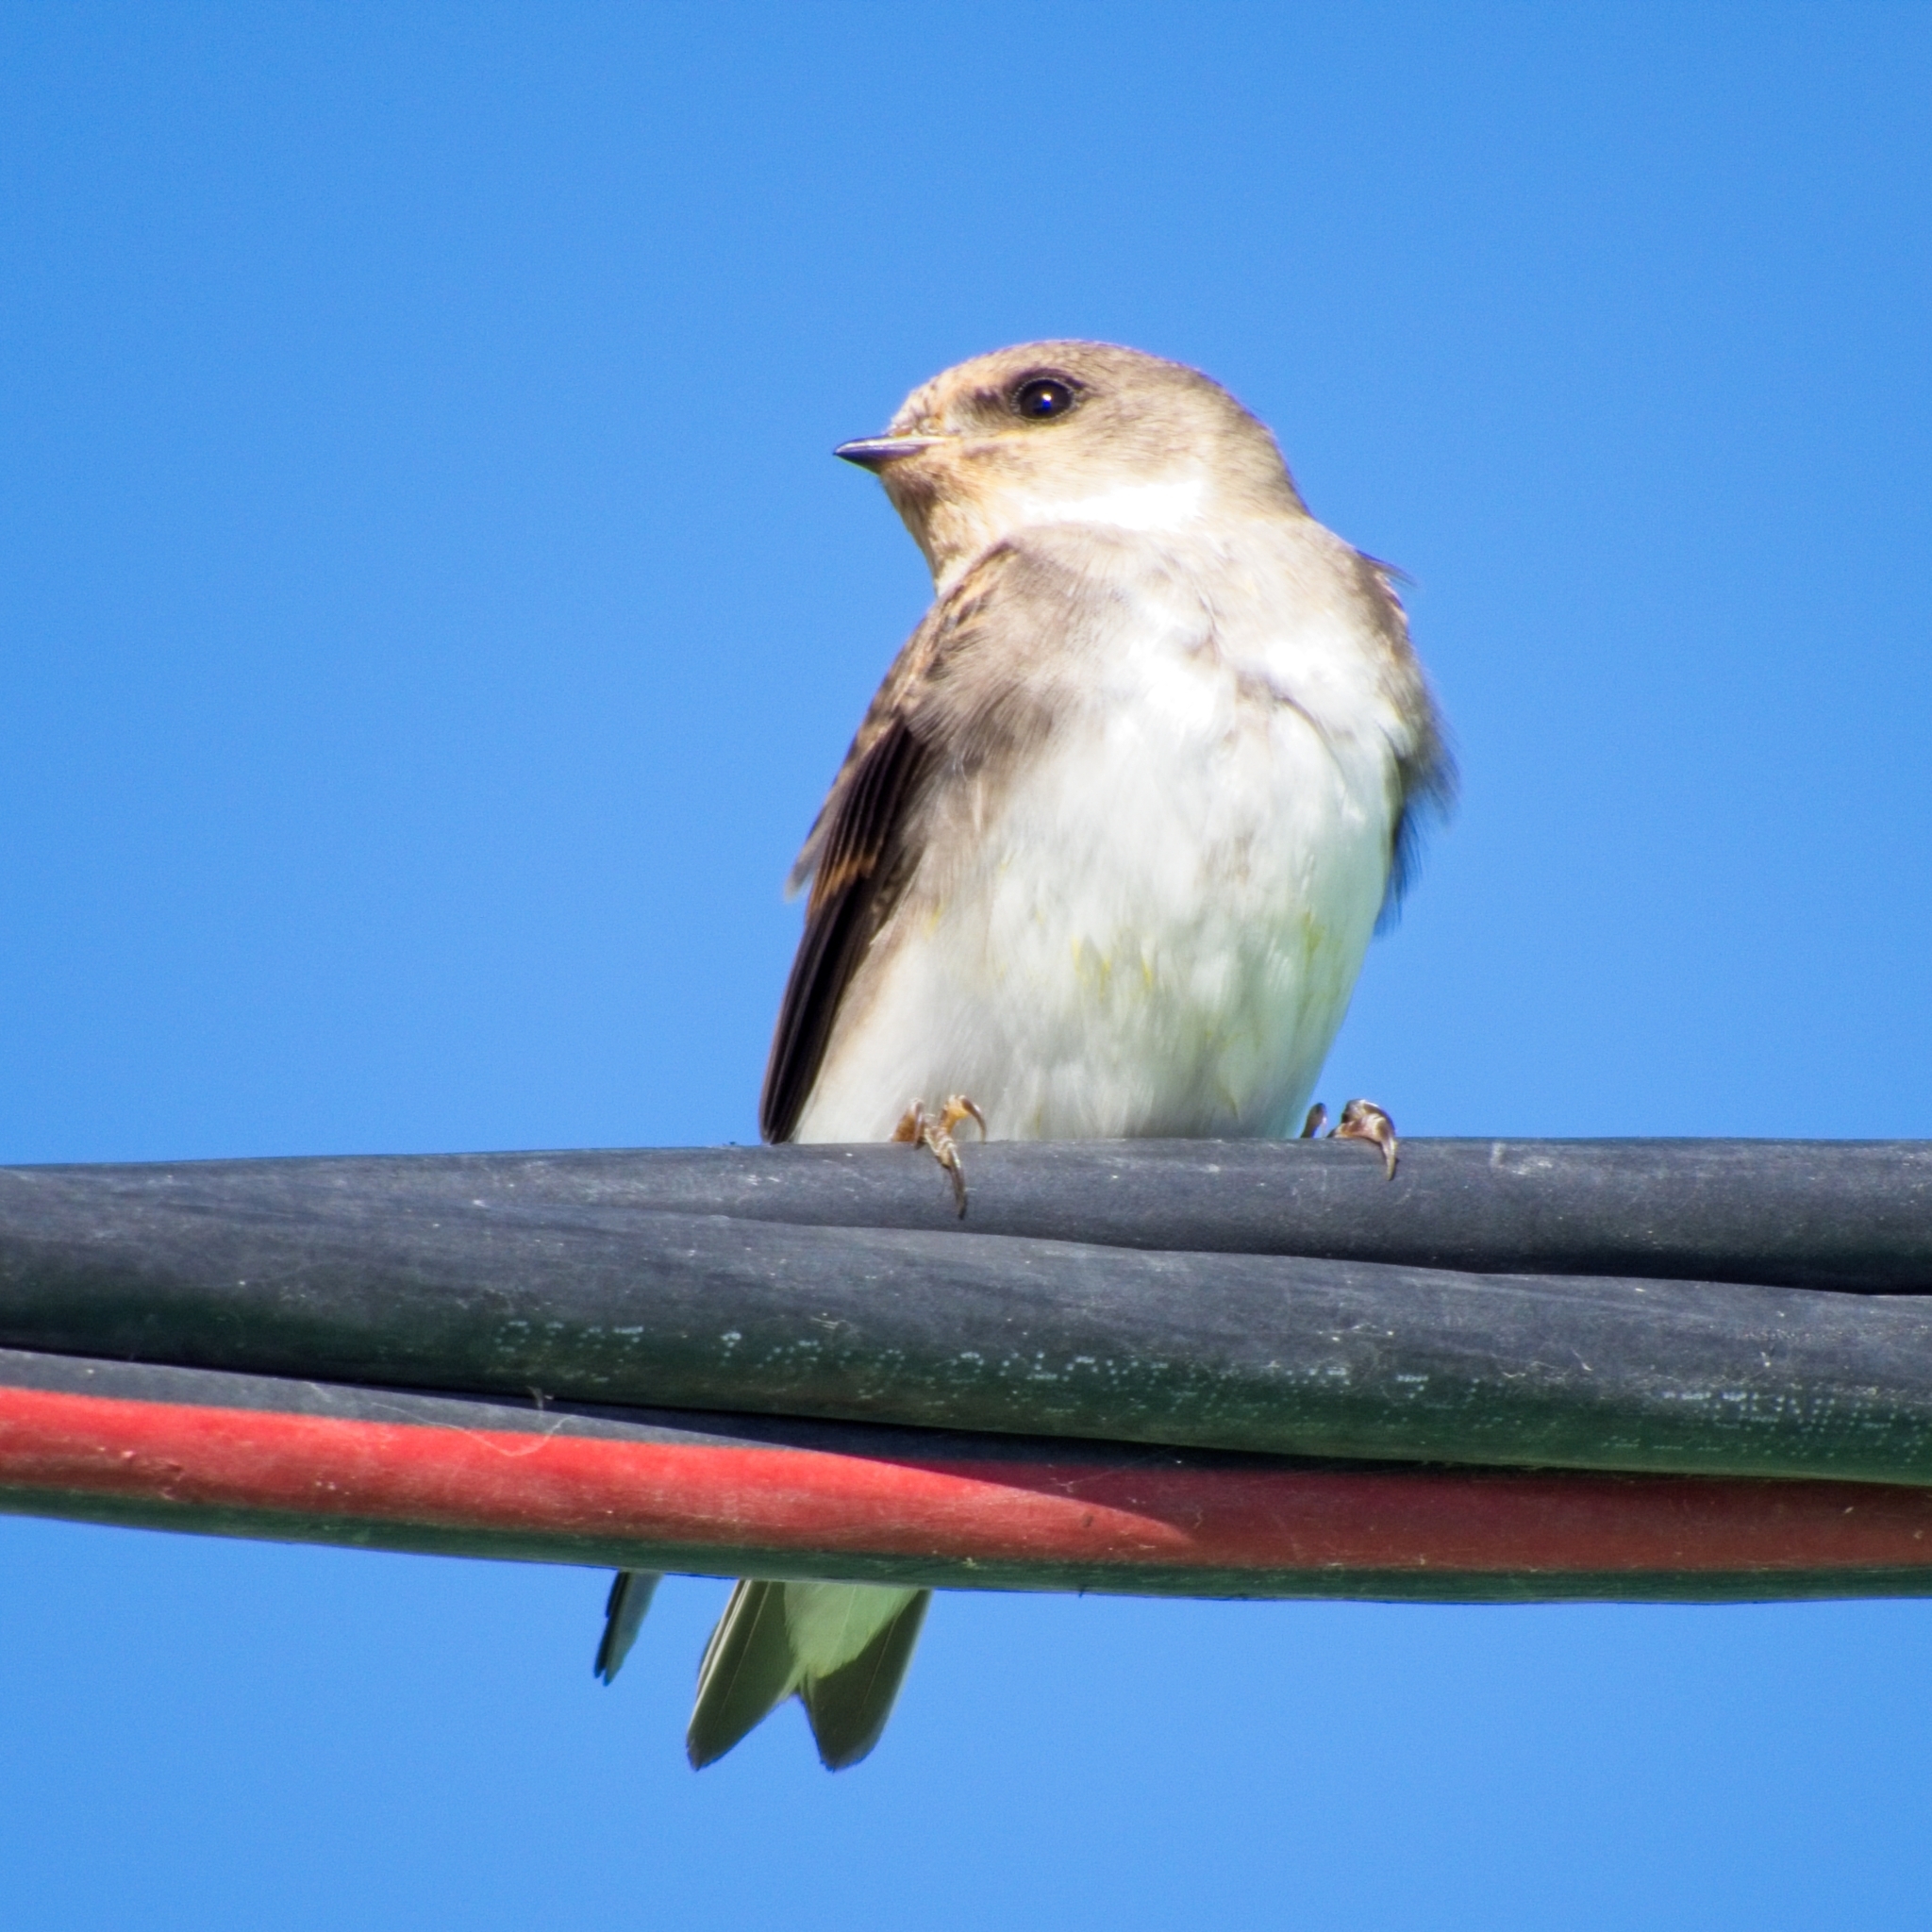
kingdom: Animalia
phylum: Chordata
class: Aves
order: Passeriformes
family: Hirundinidae
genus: Riparia
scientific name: Riparia diluta
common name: Pale martin
